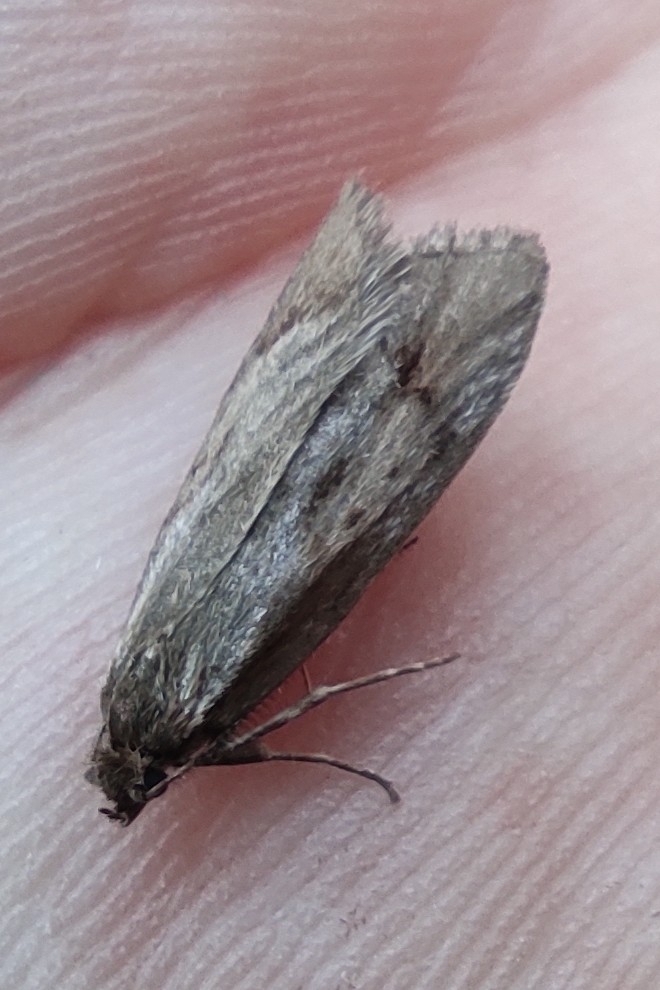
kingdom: Animalia
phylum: Arthropoda
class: Insecta
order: Lepidoptera
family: Lypusidae
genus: Diurnea
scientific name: Diurnea lipsiella
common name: November tubic
